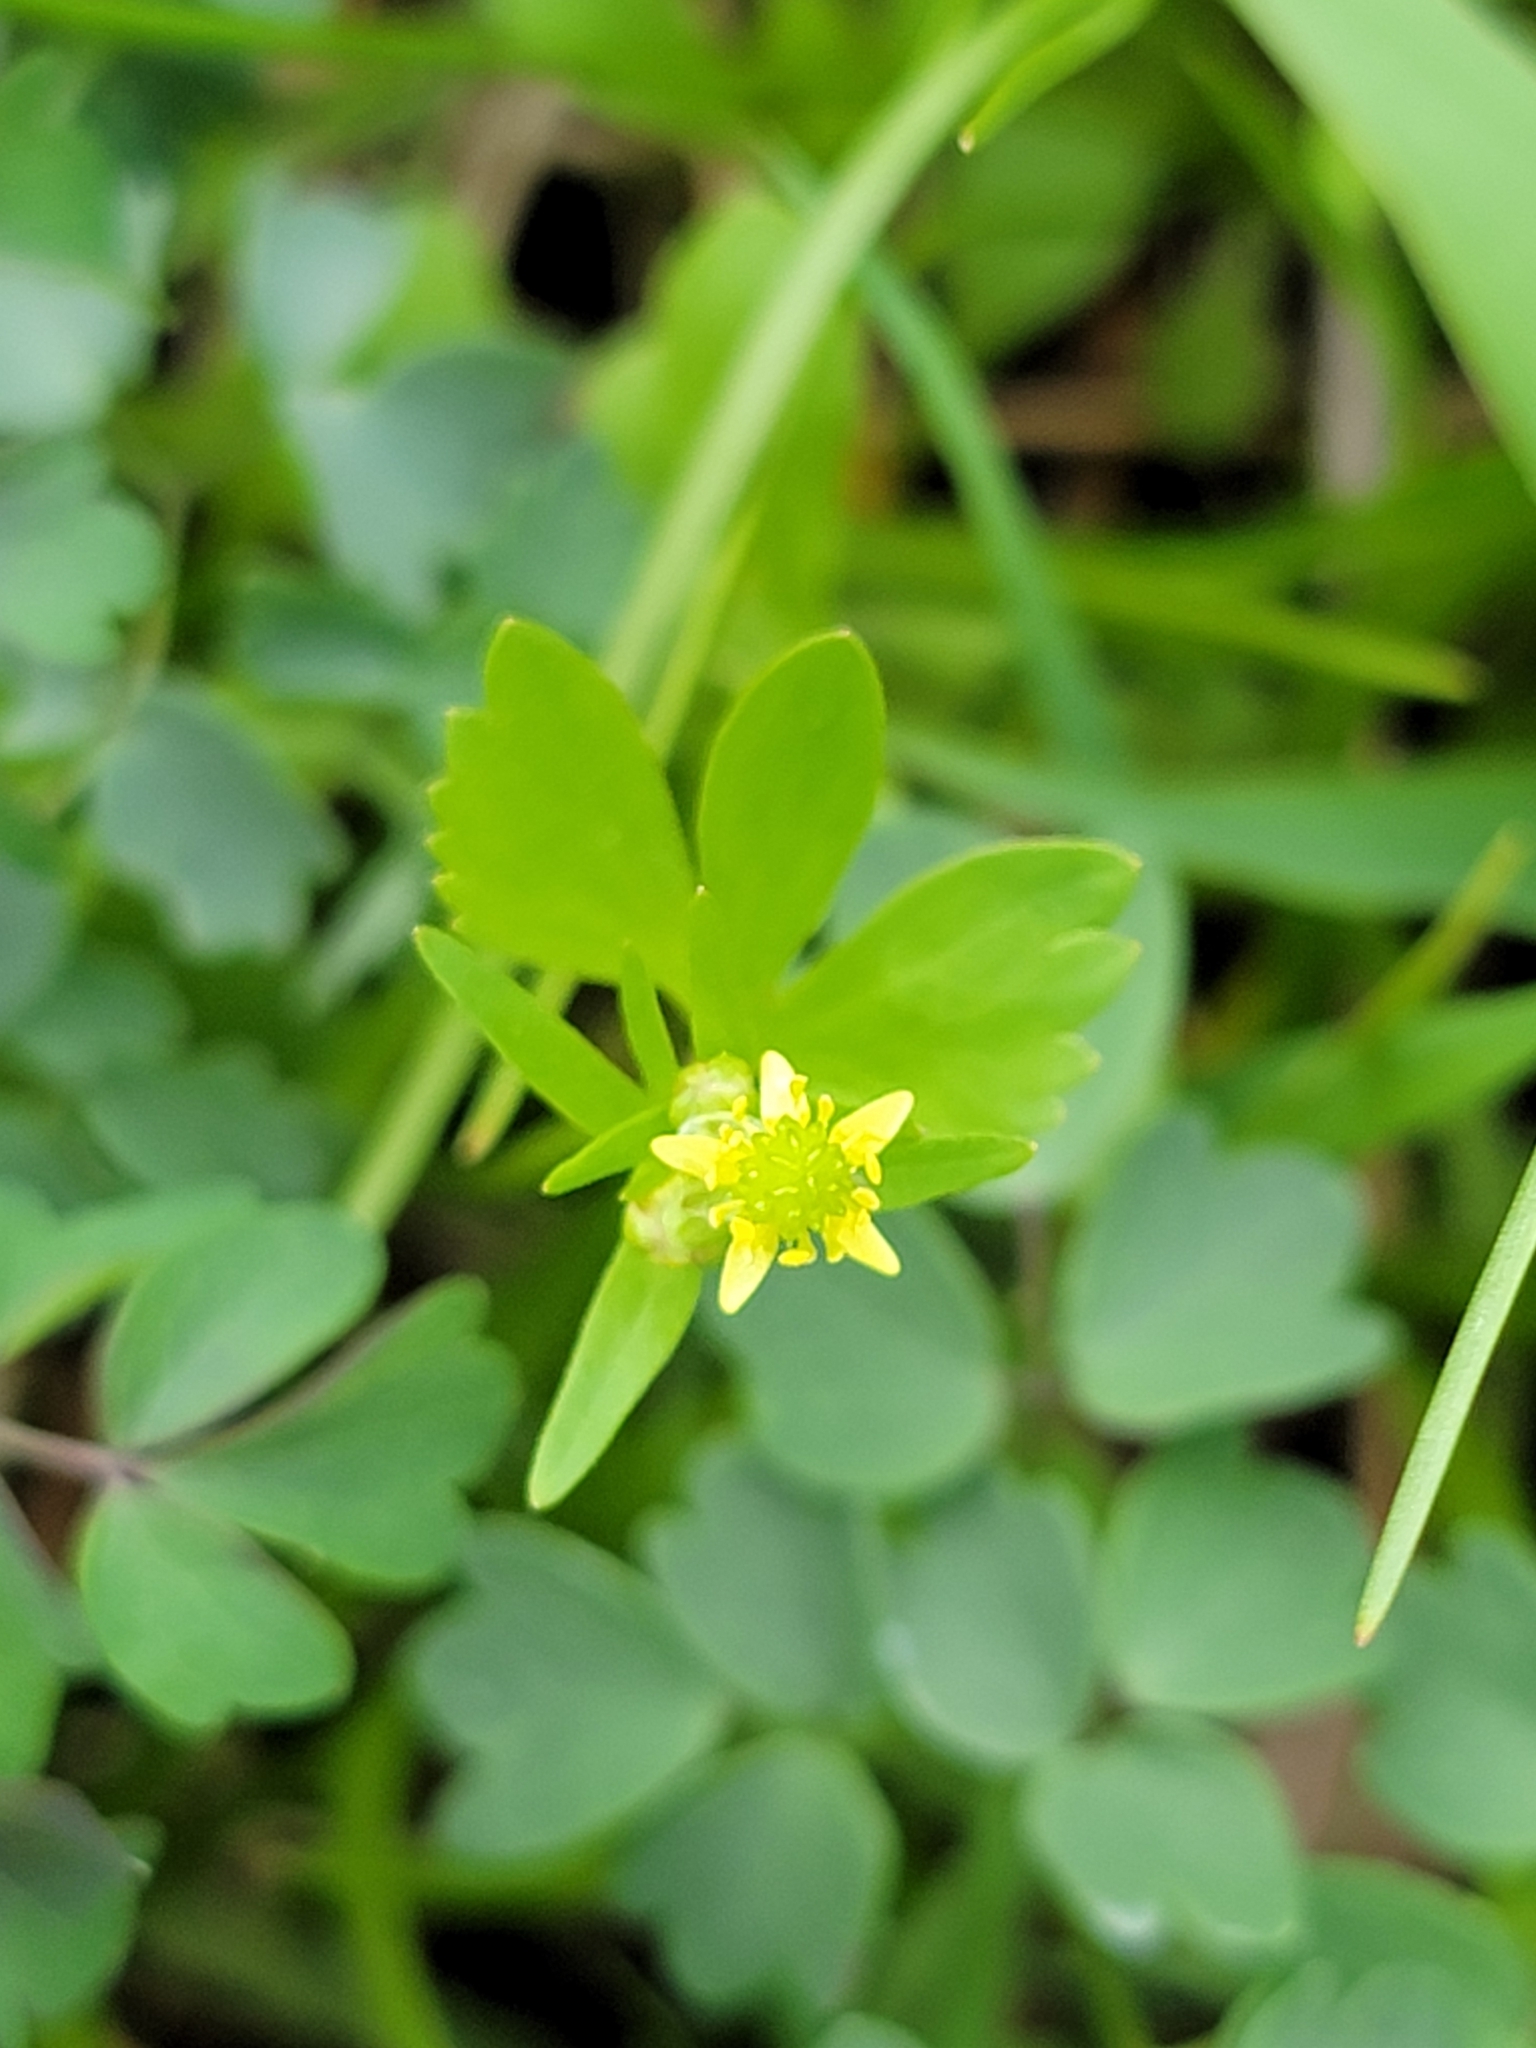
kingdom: Plantae
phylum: Tracheophyta
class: Magnoliopsida
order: Ranunculales
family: Ranunculaceae
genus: Ranunculus
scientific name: Ranunculus abortivus
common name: Early wood buttercup
